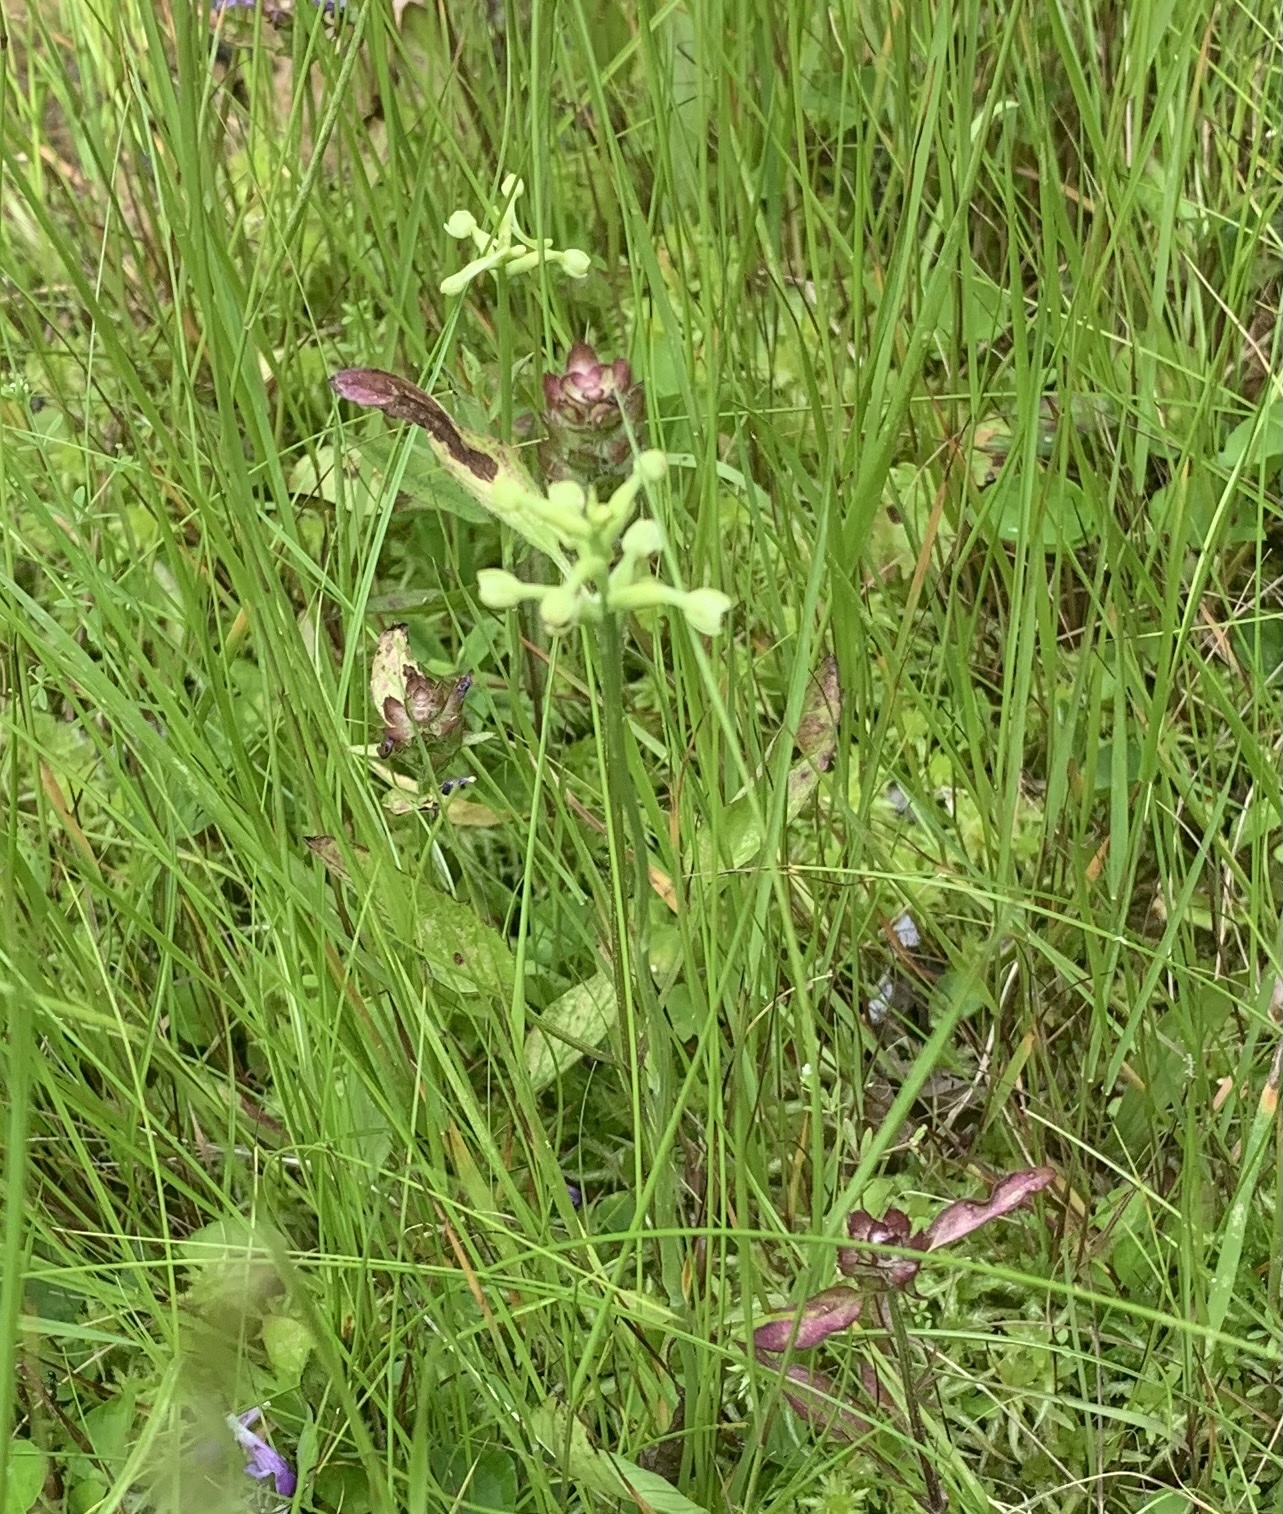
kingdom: Plantae
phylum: Tracheophyta
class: Liliopsida
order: Asparagales
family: Orchidaceae
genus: Platanthera
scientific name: Platanthera clavellata
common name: Club-spur orchid
